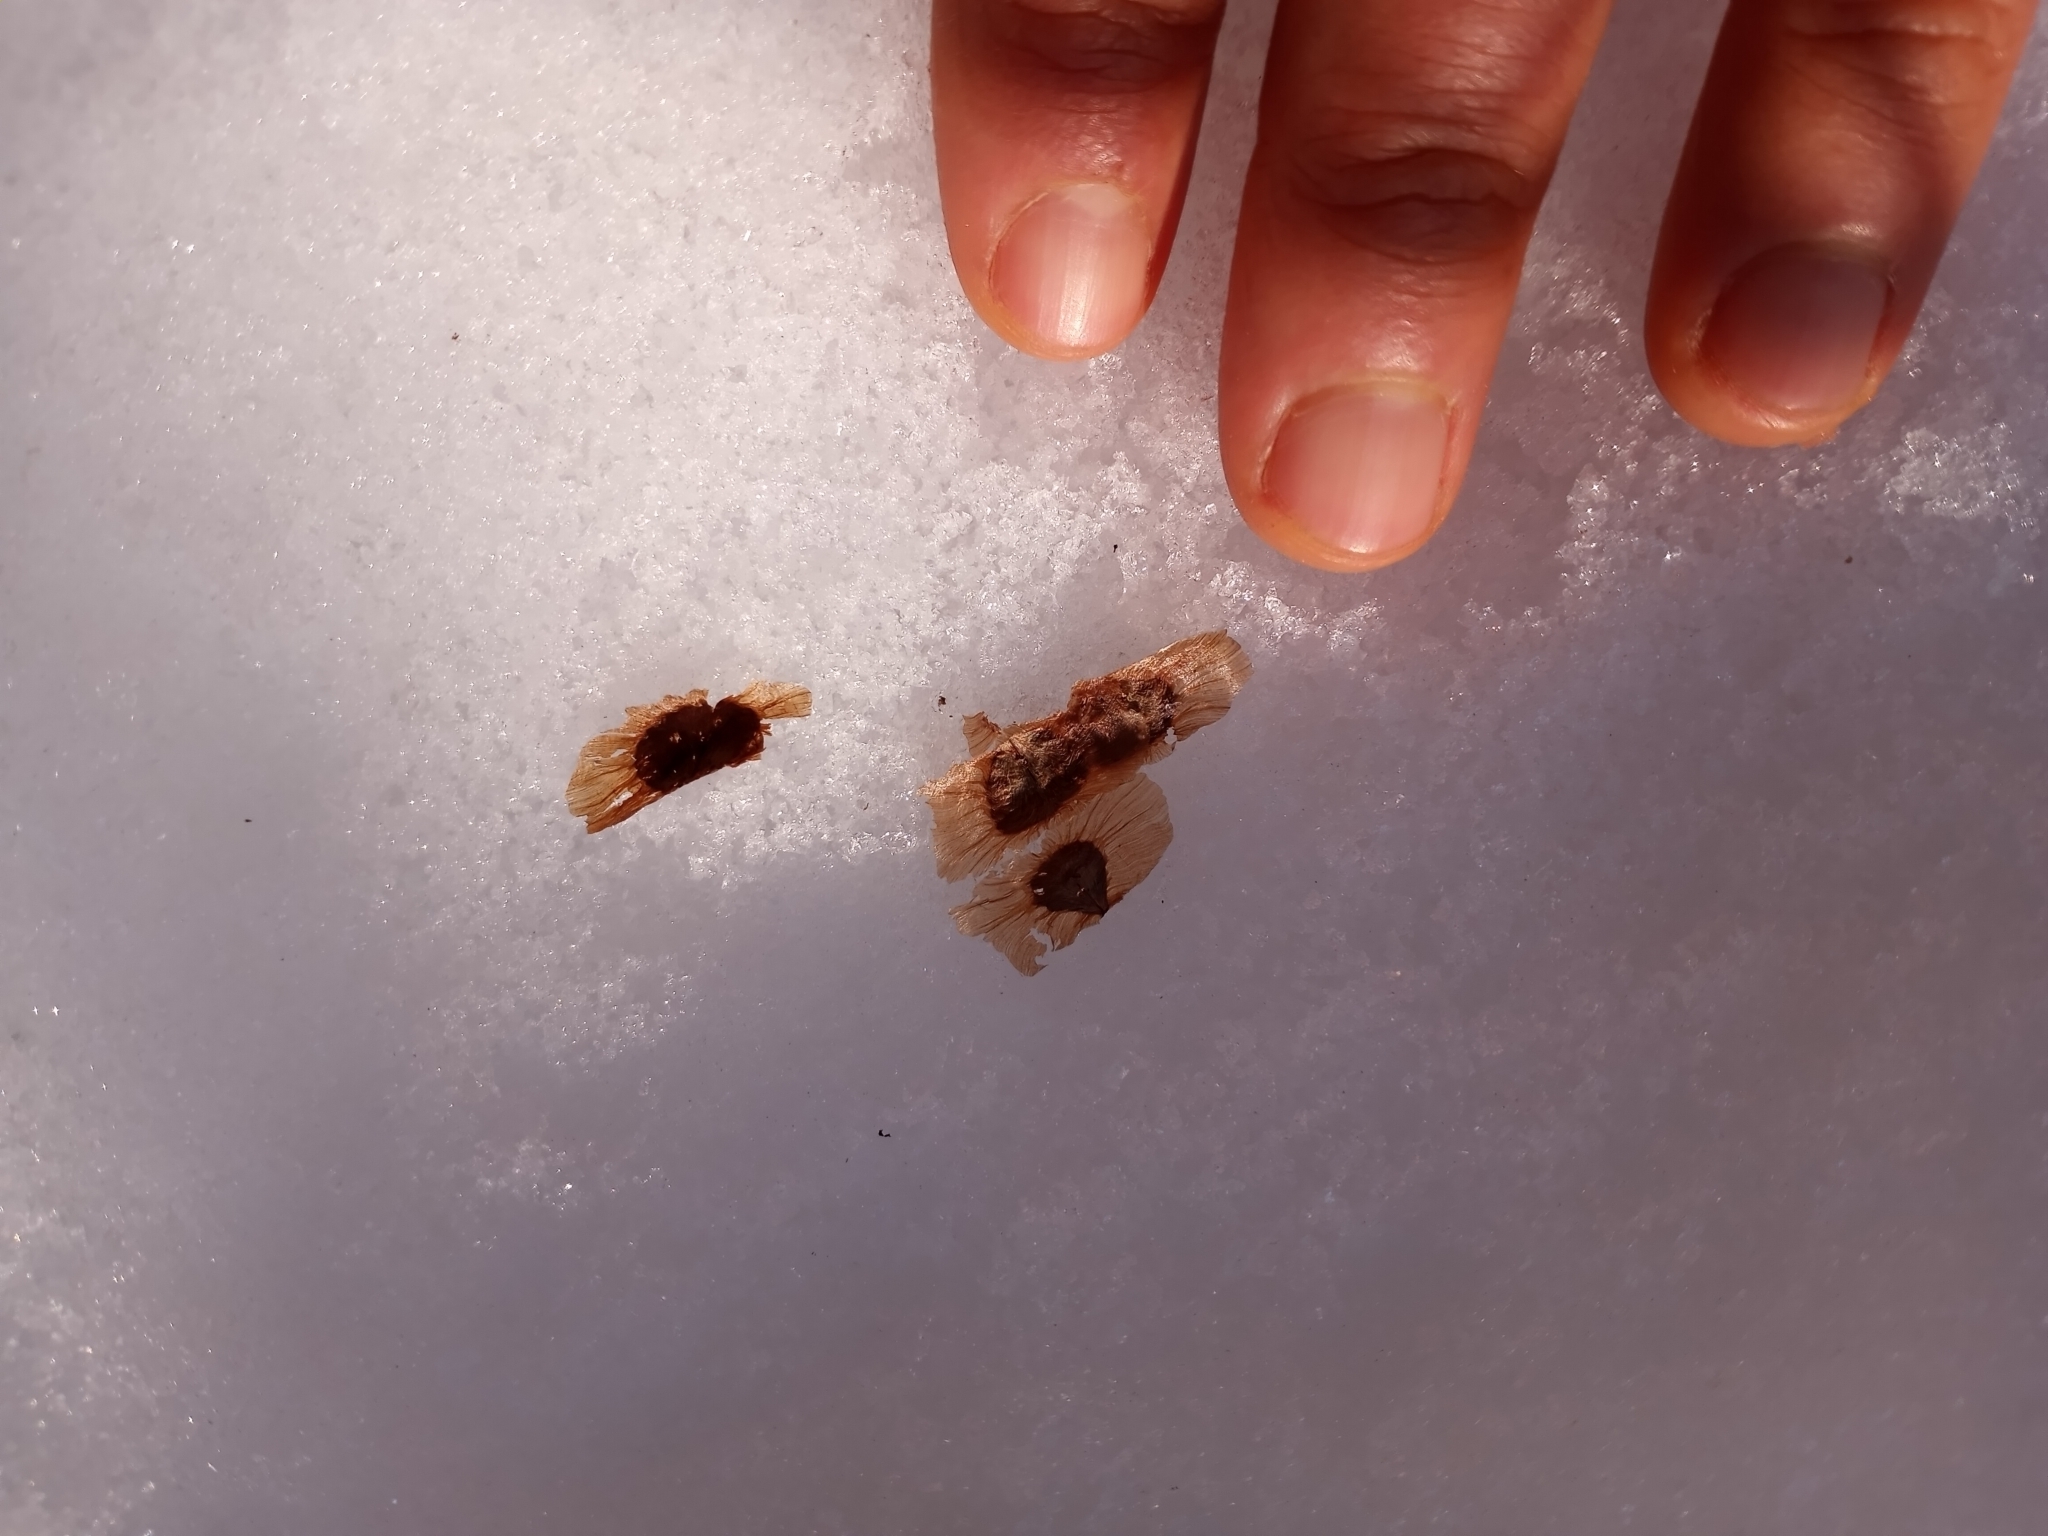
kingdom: Plantae
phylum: Tracheophyta
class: Magnoliopsida
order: Lamiales
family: Bignoniaceae
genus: Campsis
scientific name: Campsis radicans
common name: Trumpet-creeper
